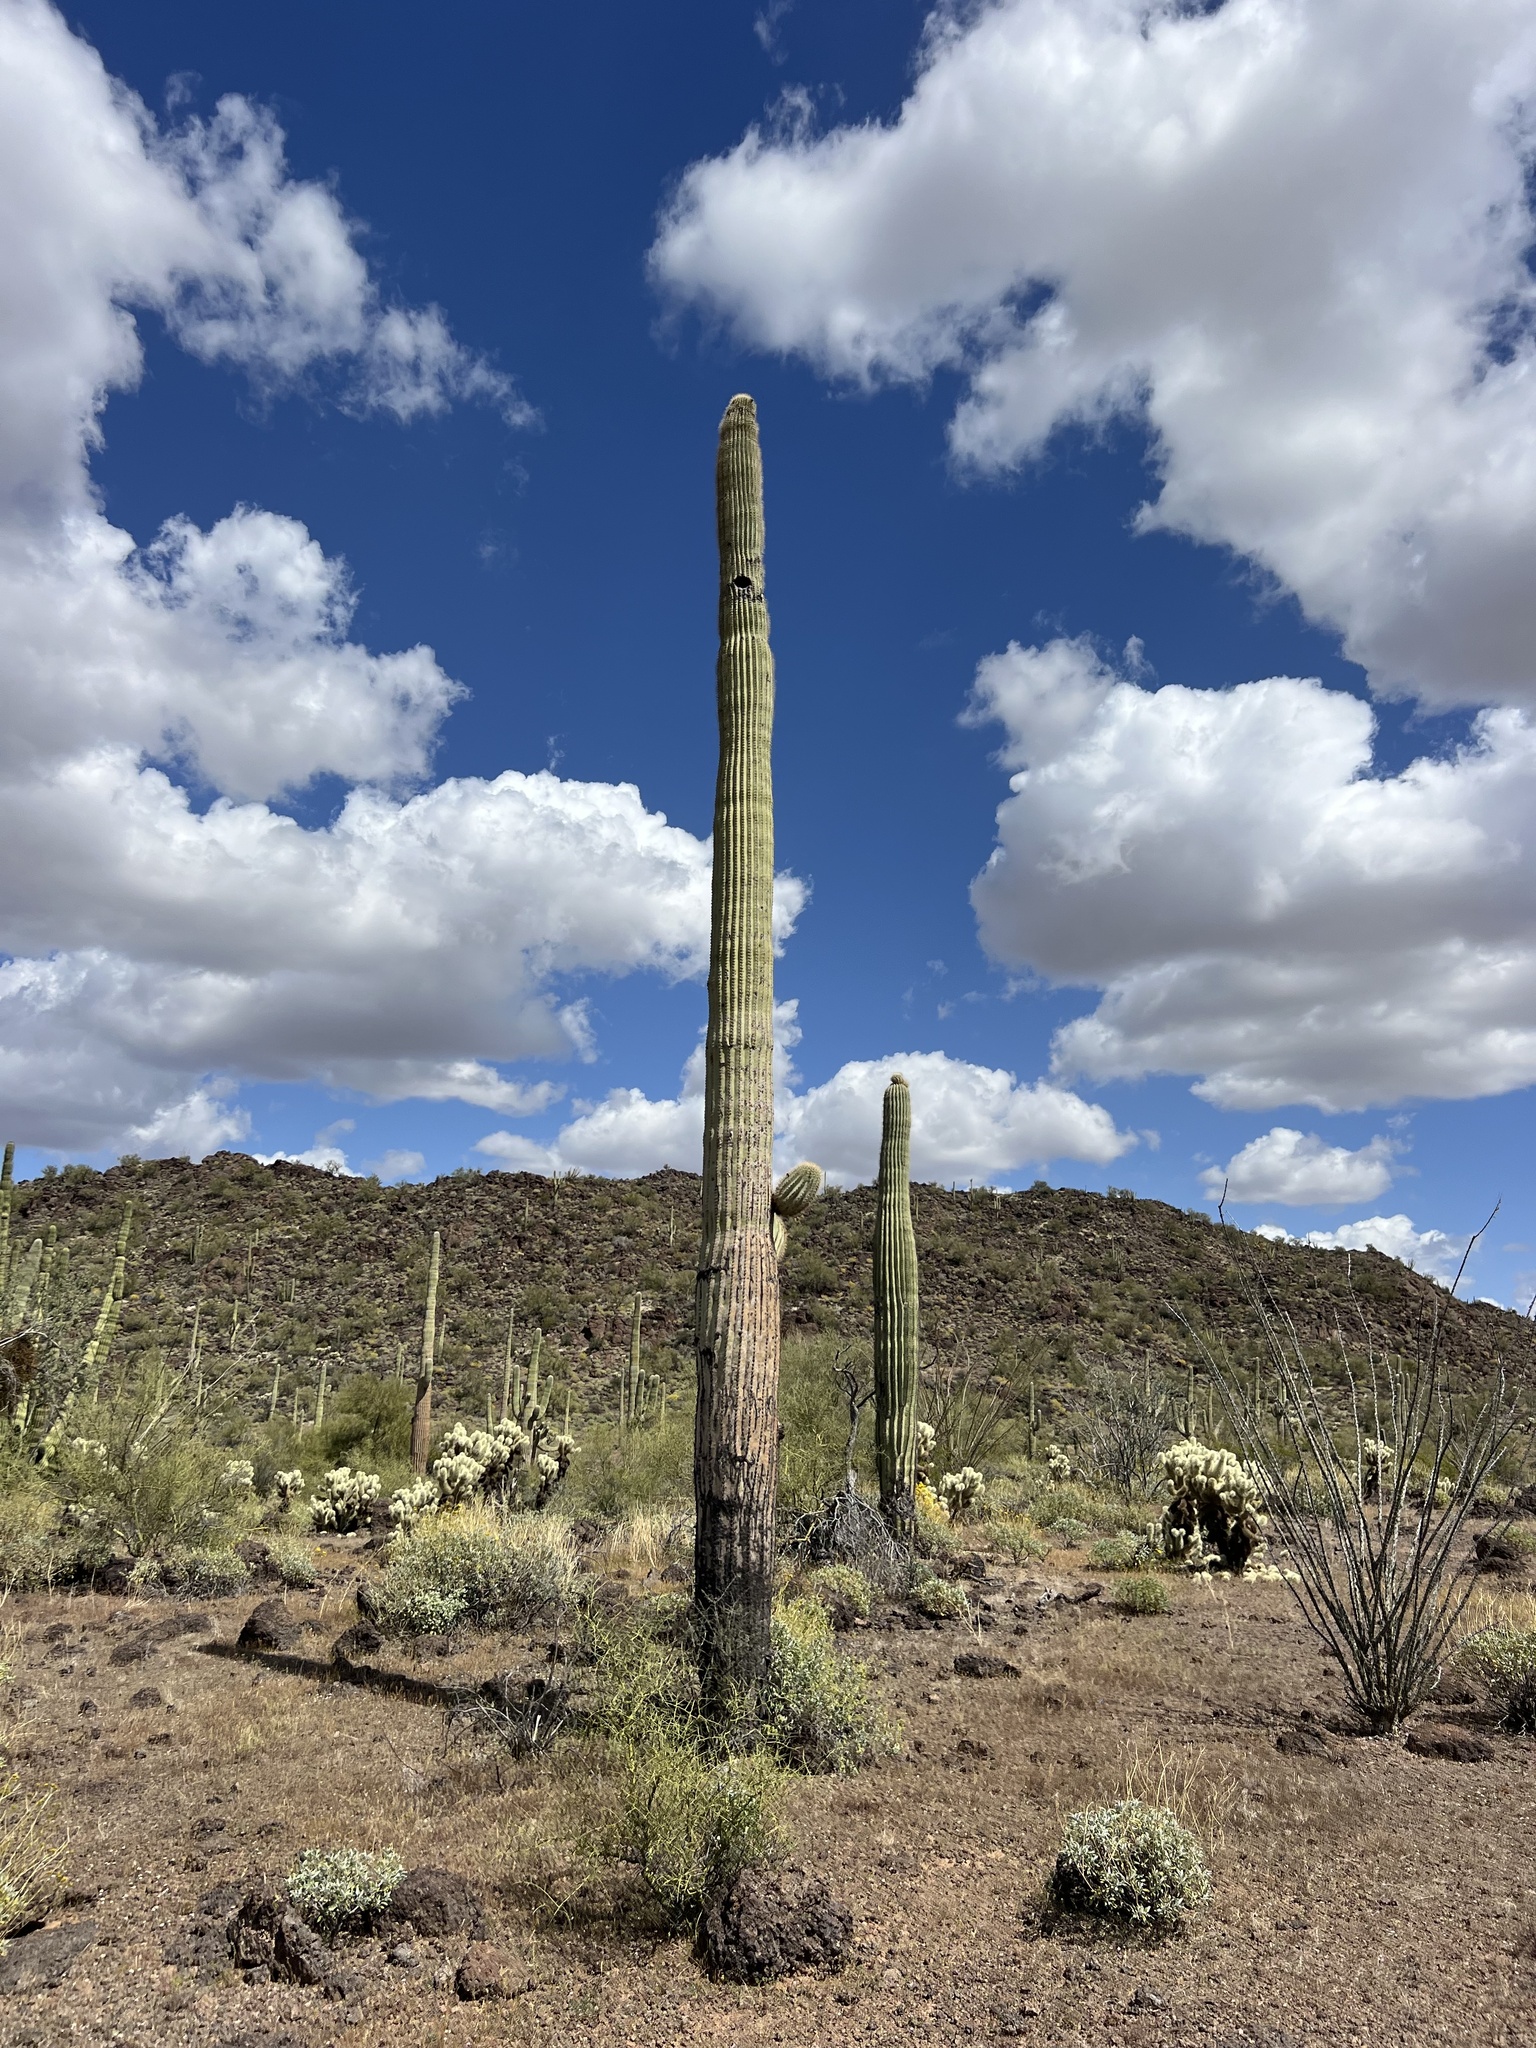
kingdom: Plantae
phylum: Tracheophyta
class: Magnoliopsida
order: Caryophyllales
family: Cactaceae
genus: Carnegiea
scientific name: Carnegiea gigantea
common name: Saguaro
